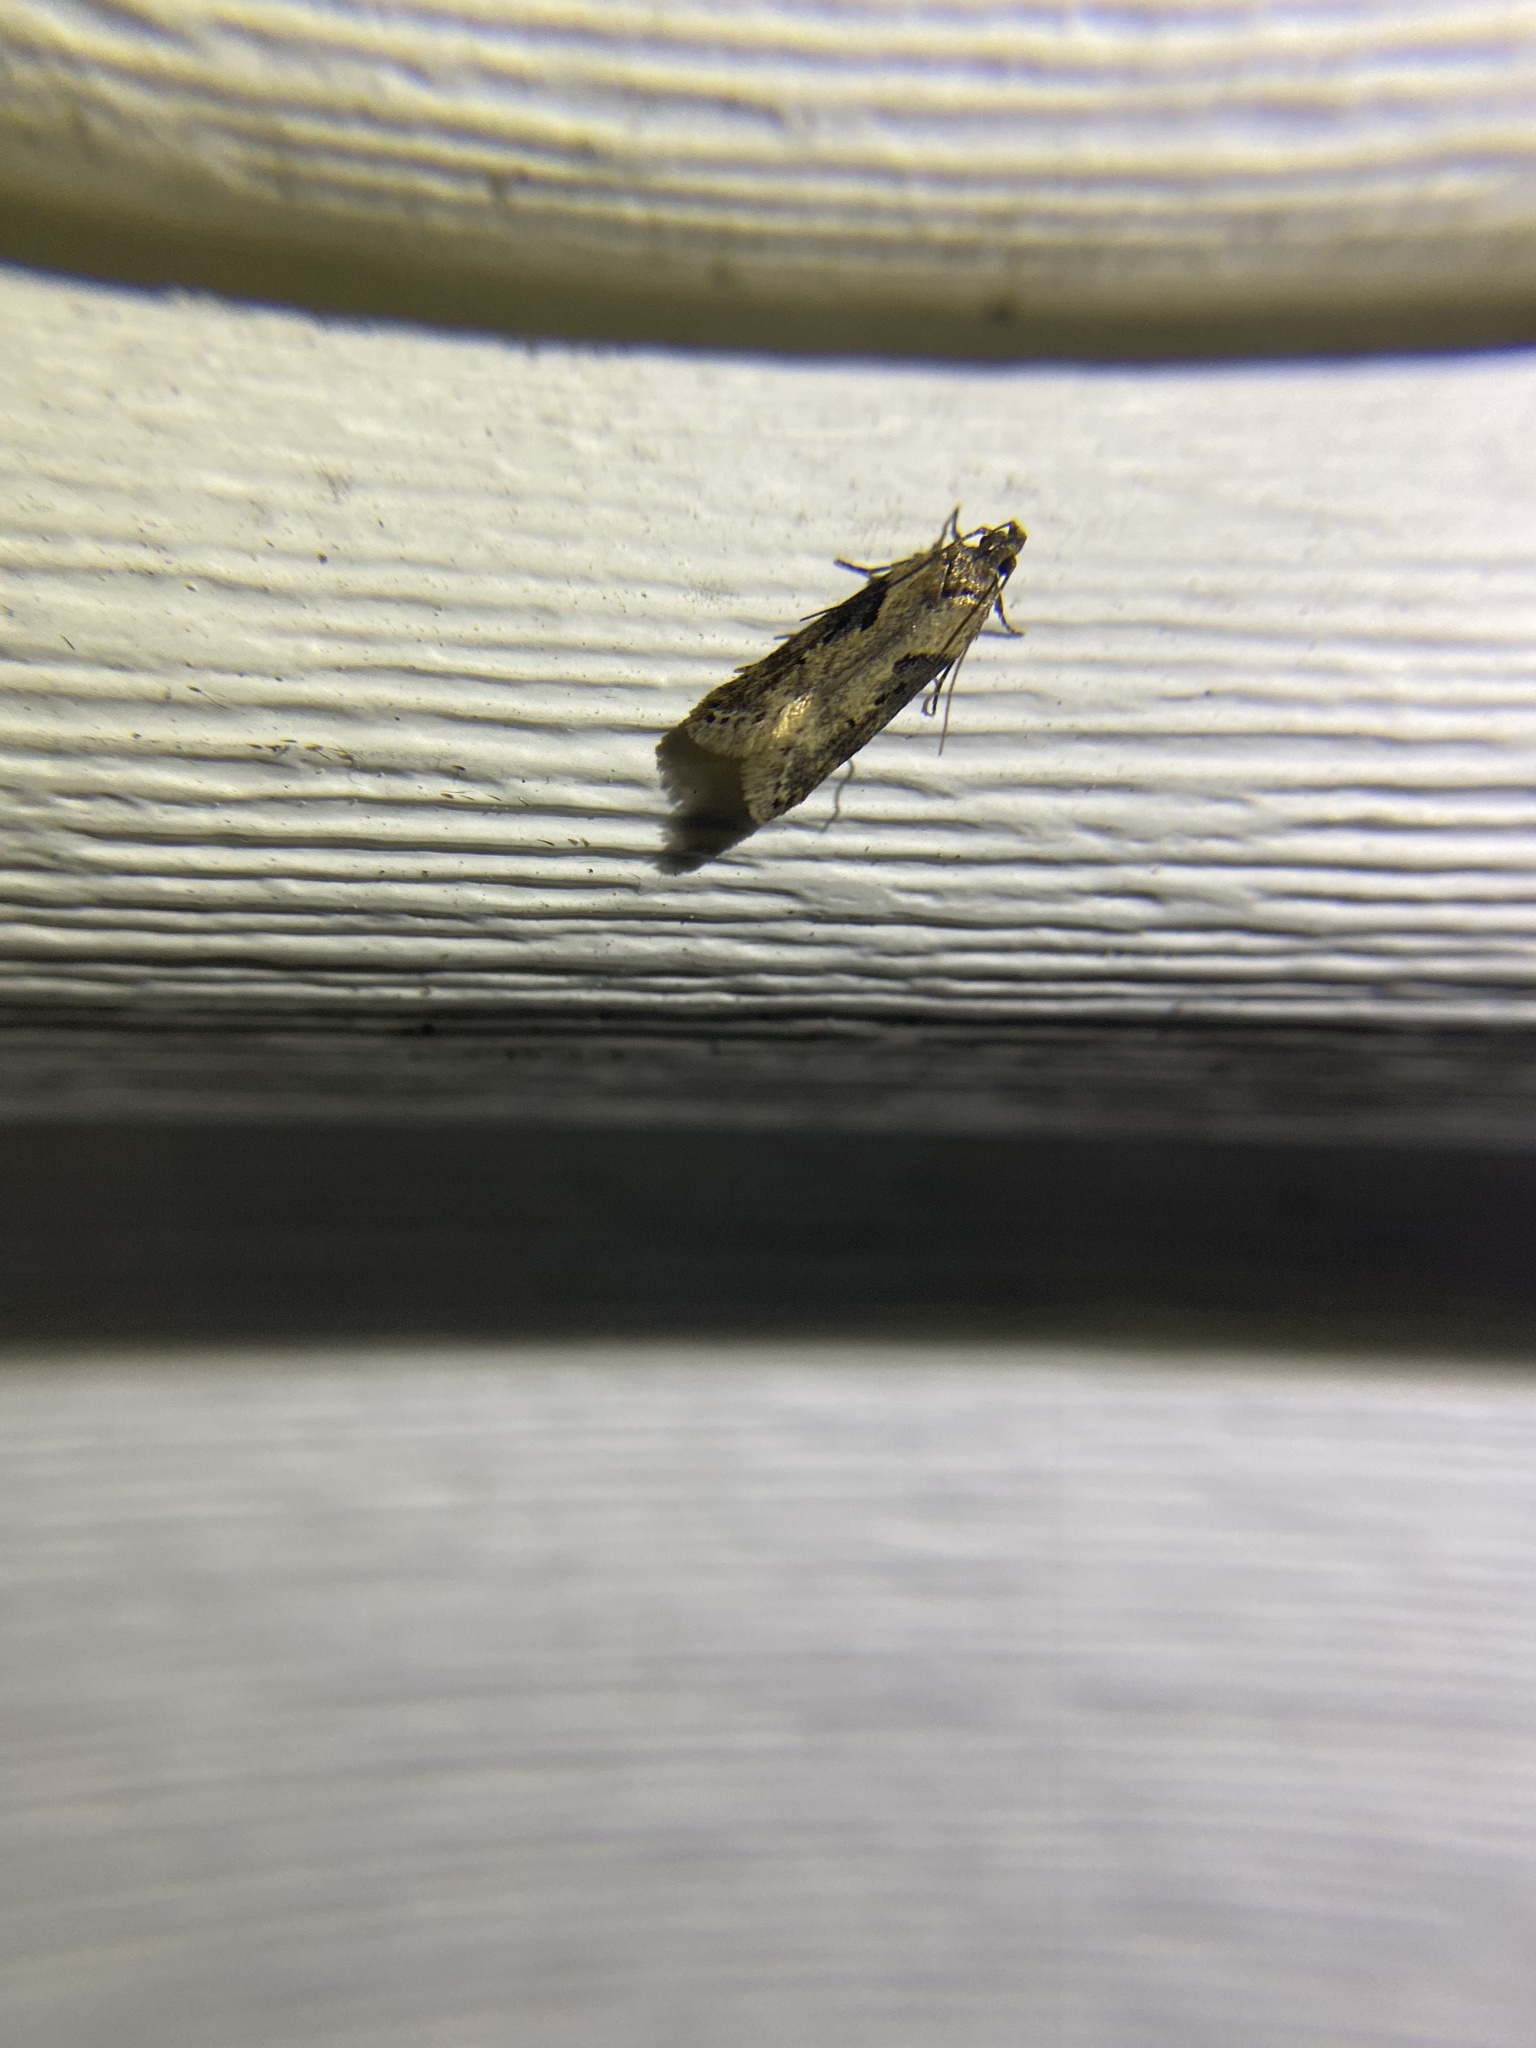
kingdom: Animalia
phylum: Arthropoda
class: Insecta
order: Lepidoptera
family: Gelechiidae
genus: Chionodes
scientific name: Chionodes mediofuscella
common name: Black-smudged chionodes moth
